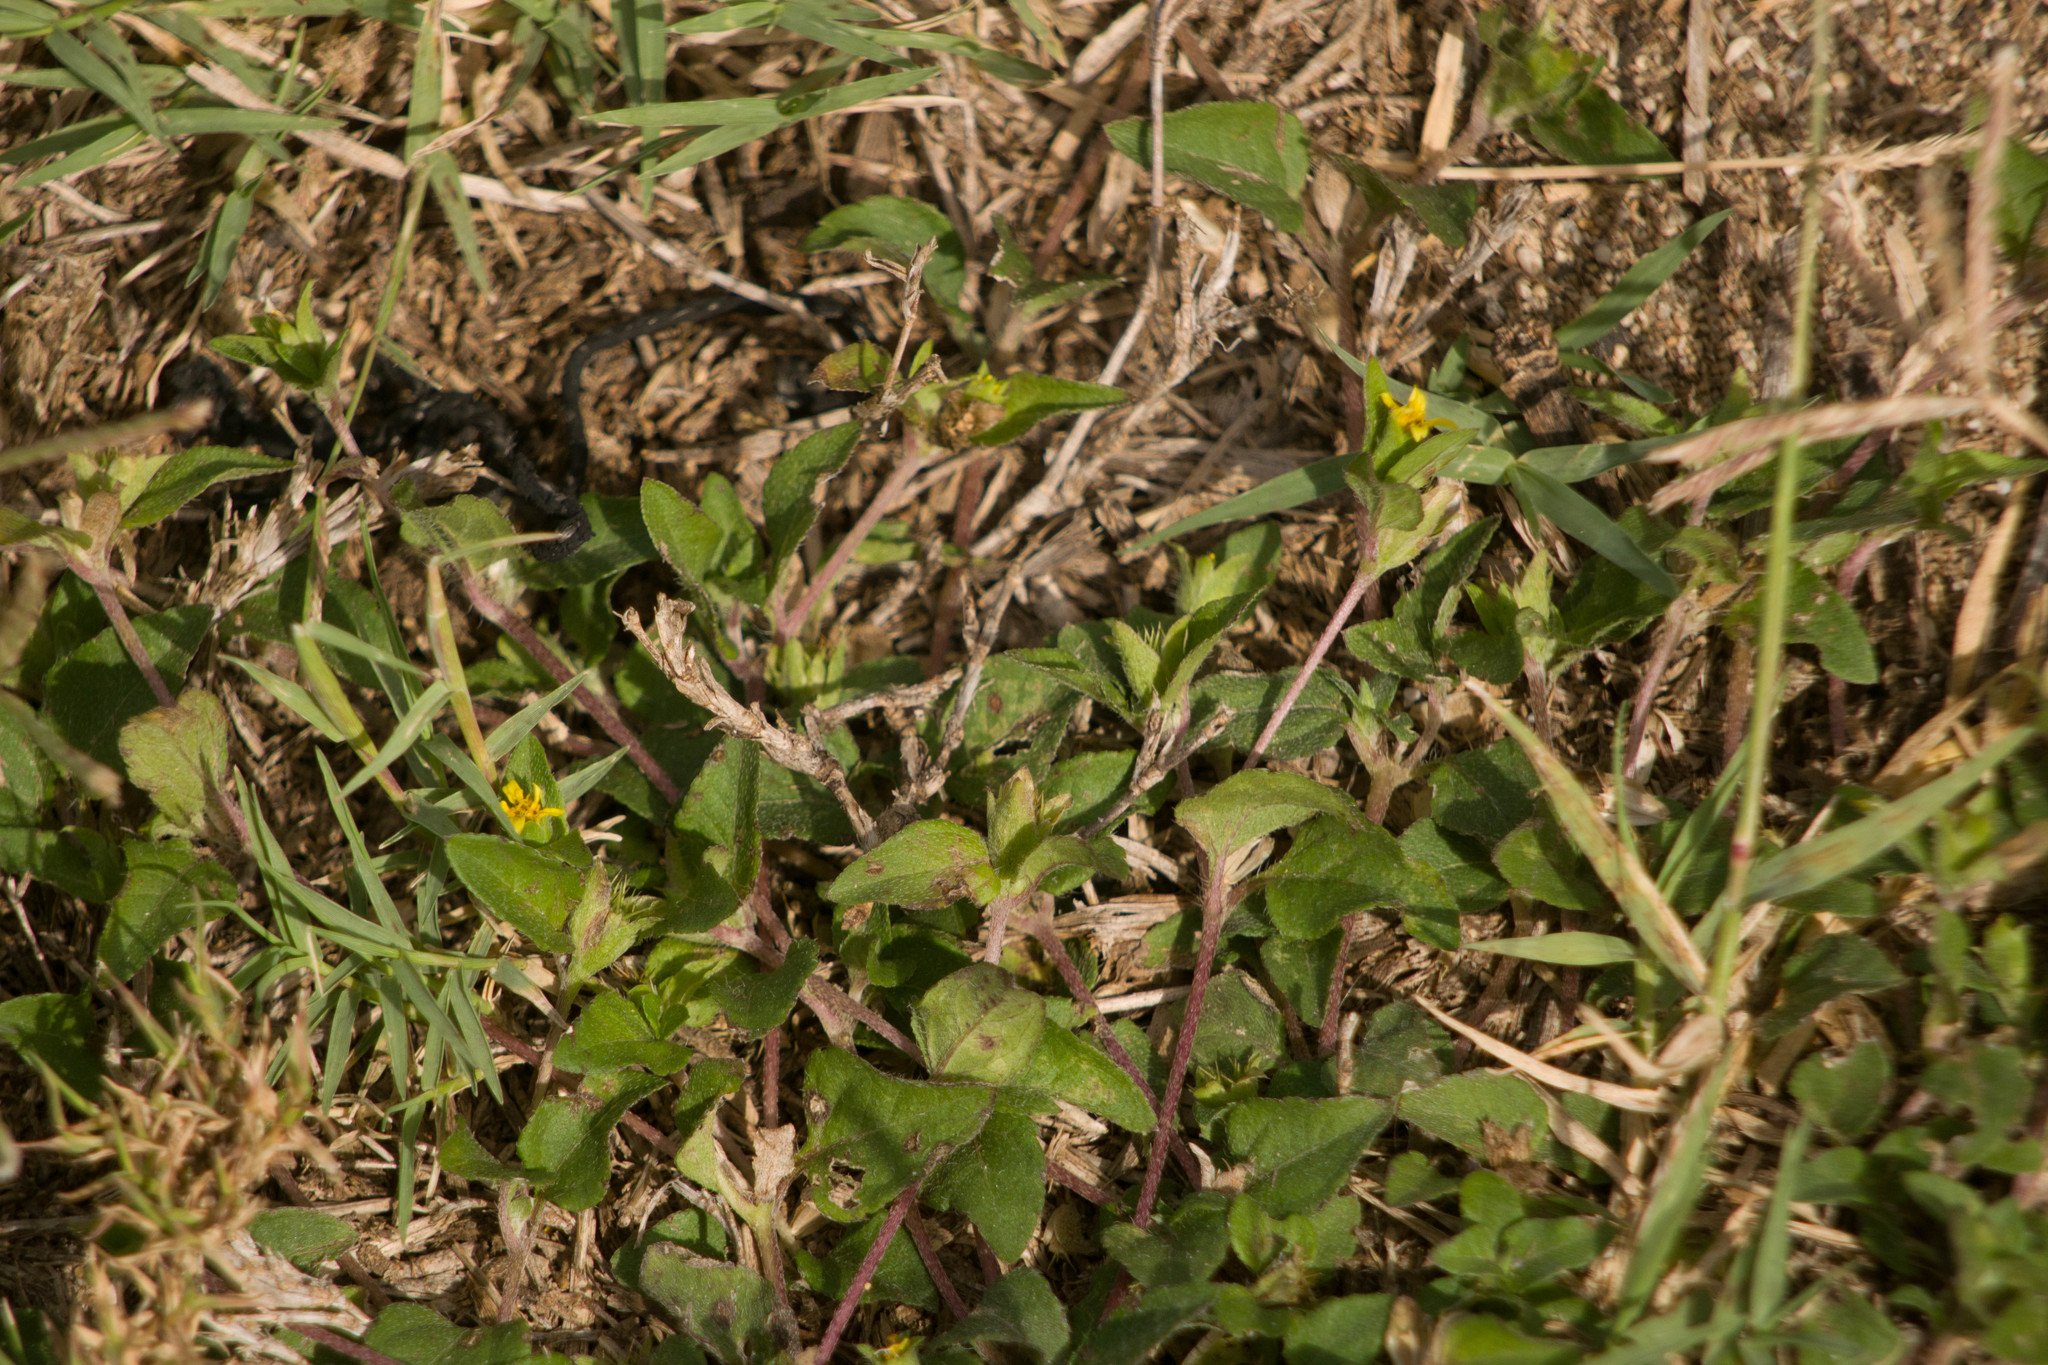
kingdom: Plantae
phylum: Tracheophyta
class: Magnoliopsida
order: Asterales
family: Asteraceae
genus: Calyptocarpus
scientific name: Calyptocarpus vialis
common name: Straggler daisy
